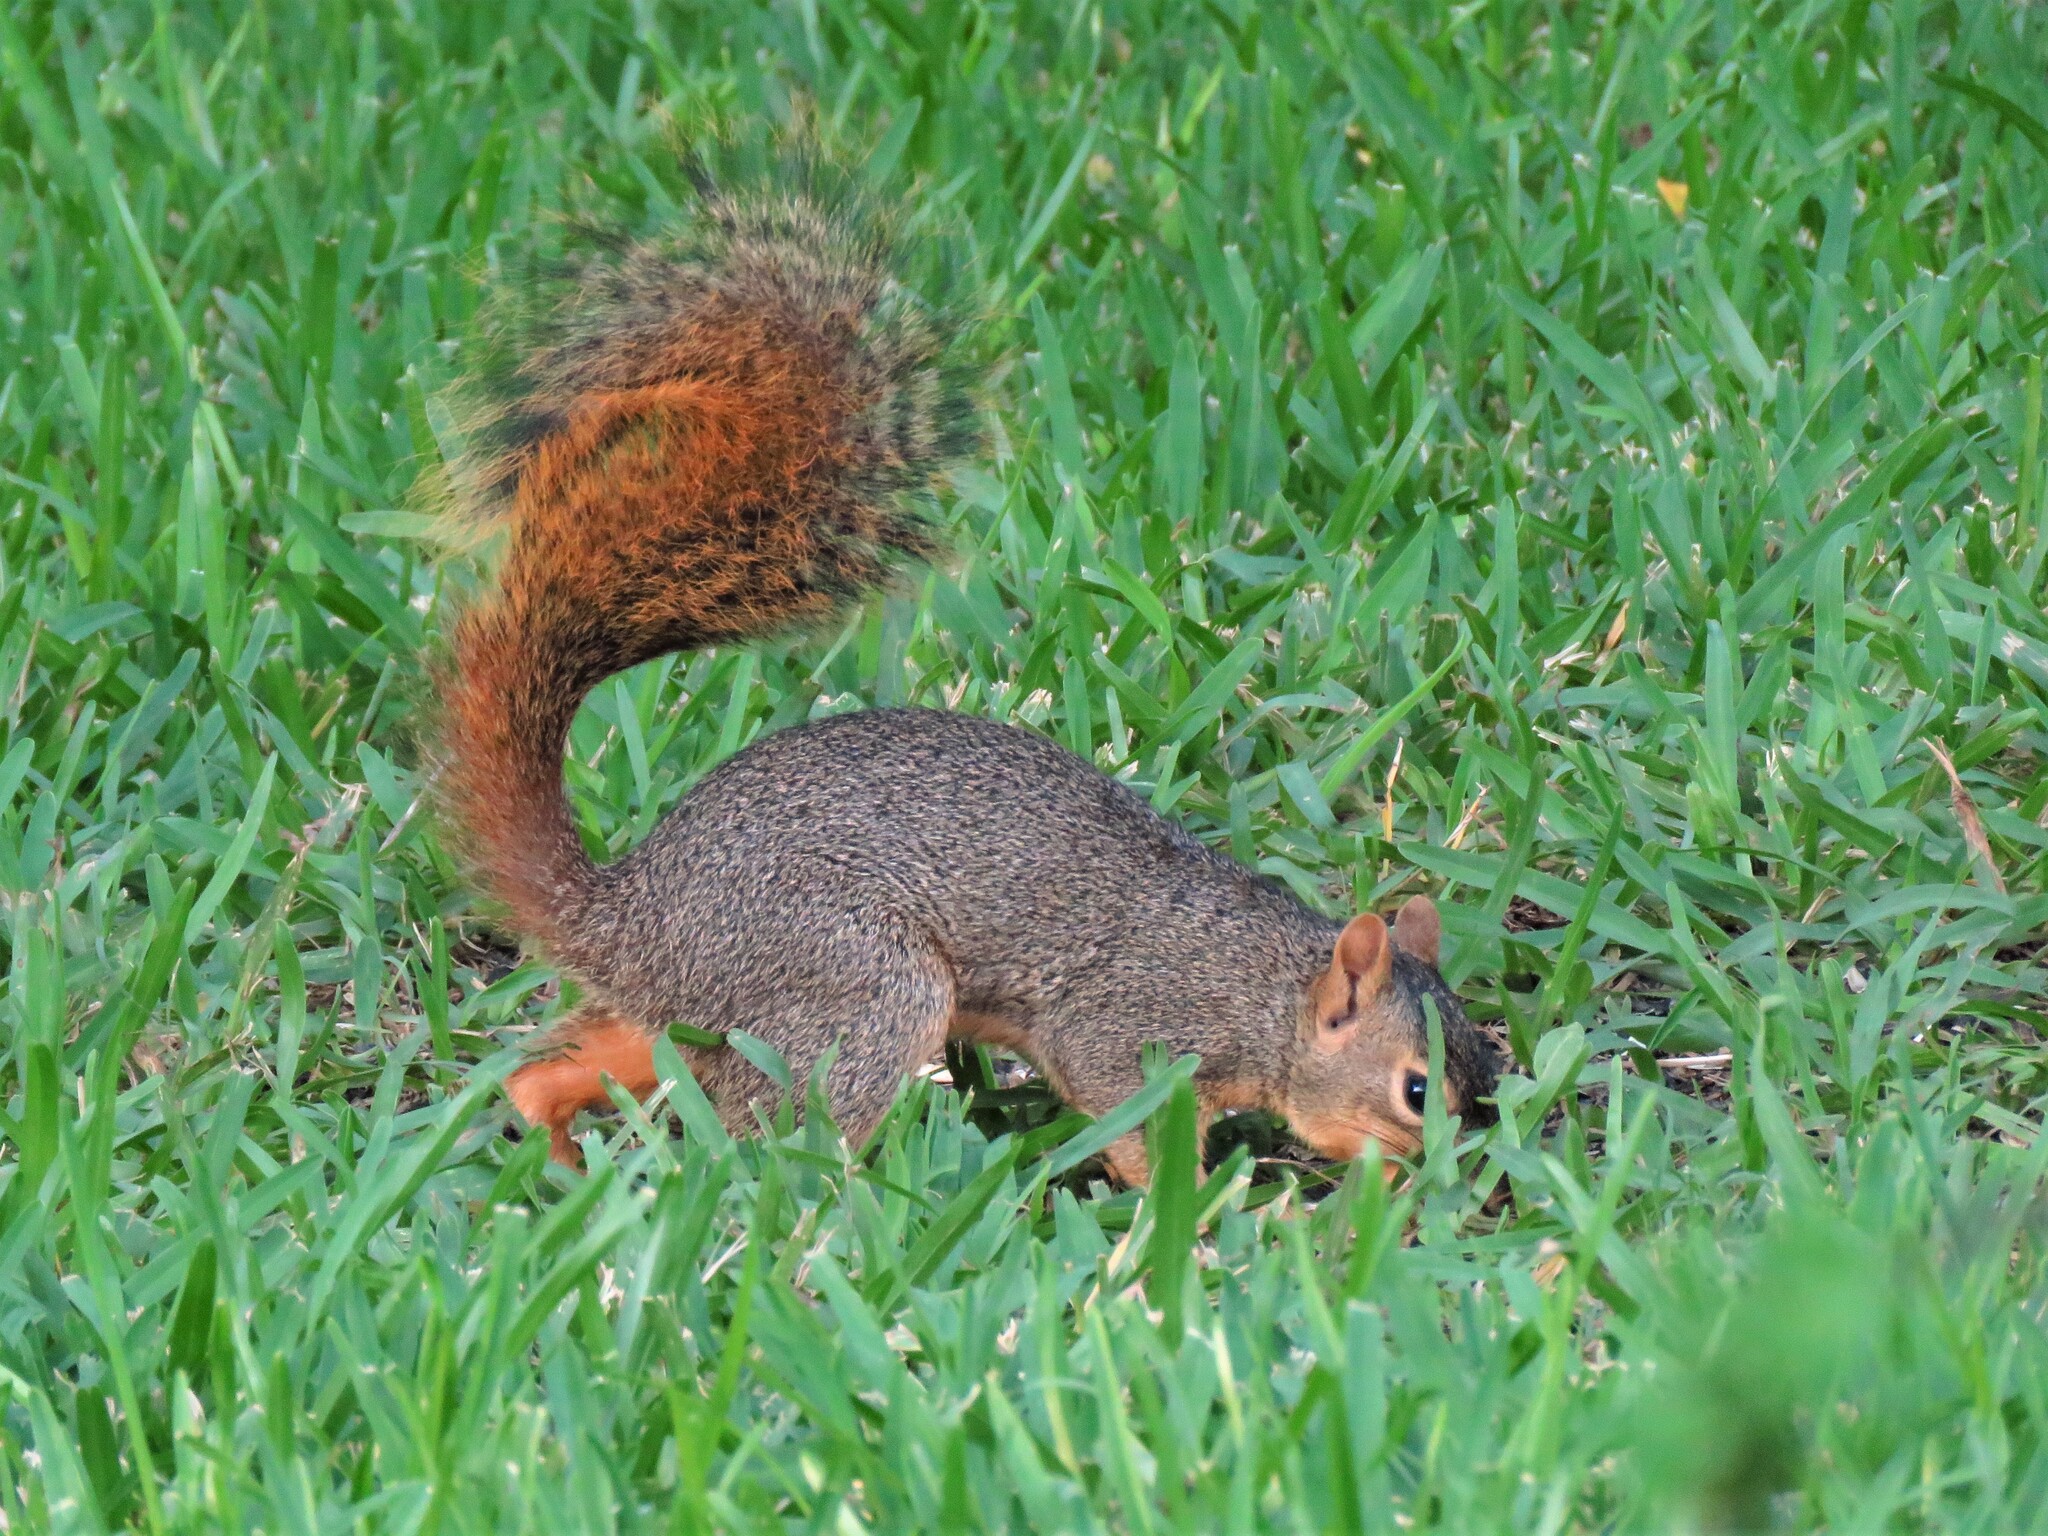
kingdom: Animalia
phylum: Chordata
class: Mammalia
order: Rodentia
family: Sciuridae
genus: Sciurus
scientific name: Sciurus niger
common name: Fox squirrel
